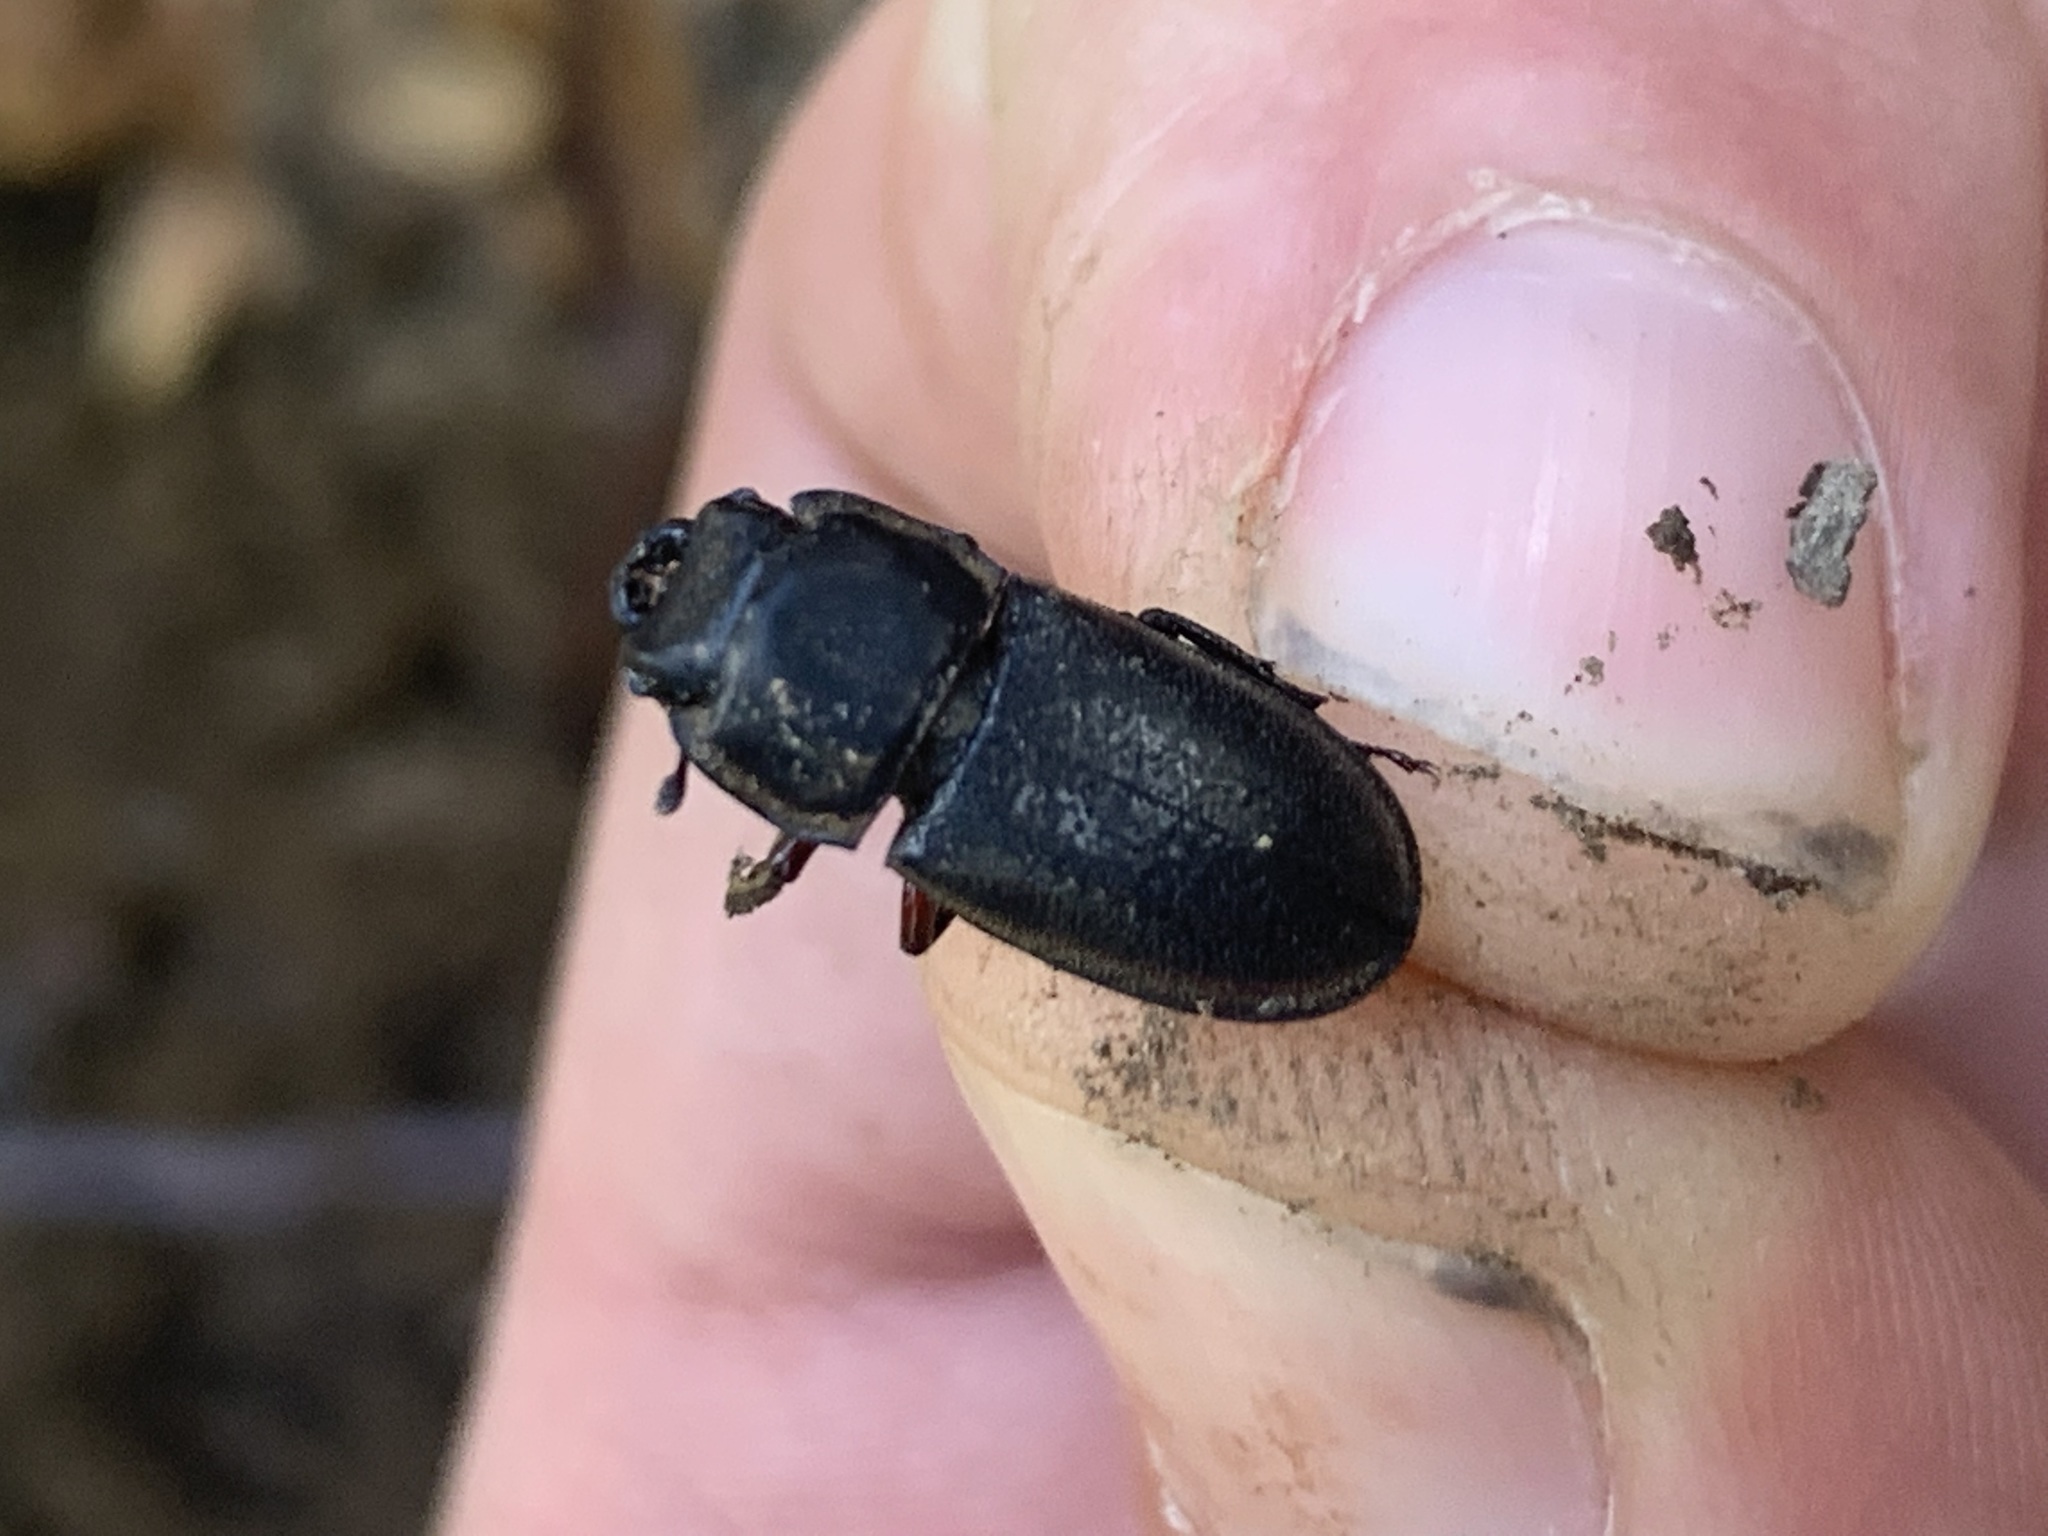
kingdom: Animalia
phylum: Arthropoda
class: Insecta
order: Coleoptera
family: Lucanidae
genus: Pycnosiphorus
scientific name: Pycnosiphorus lessonii
